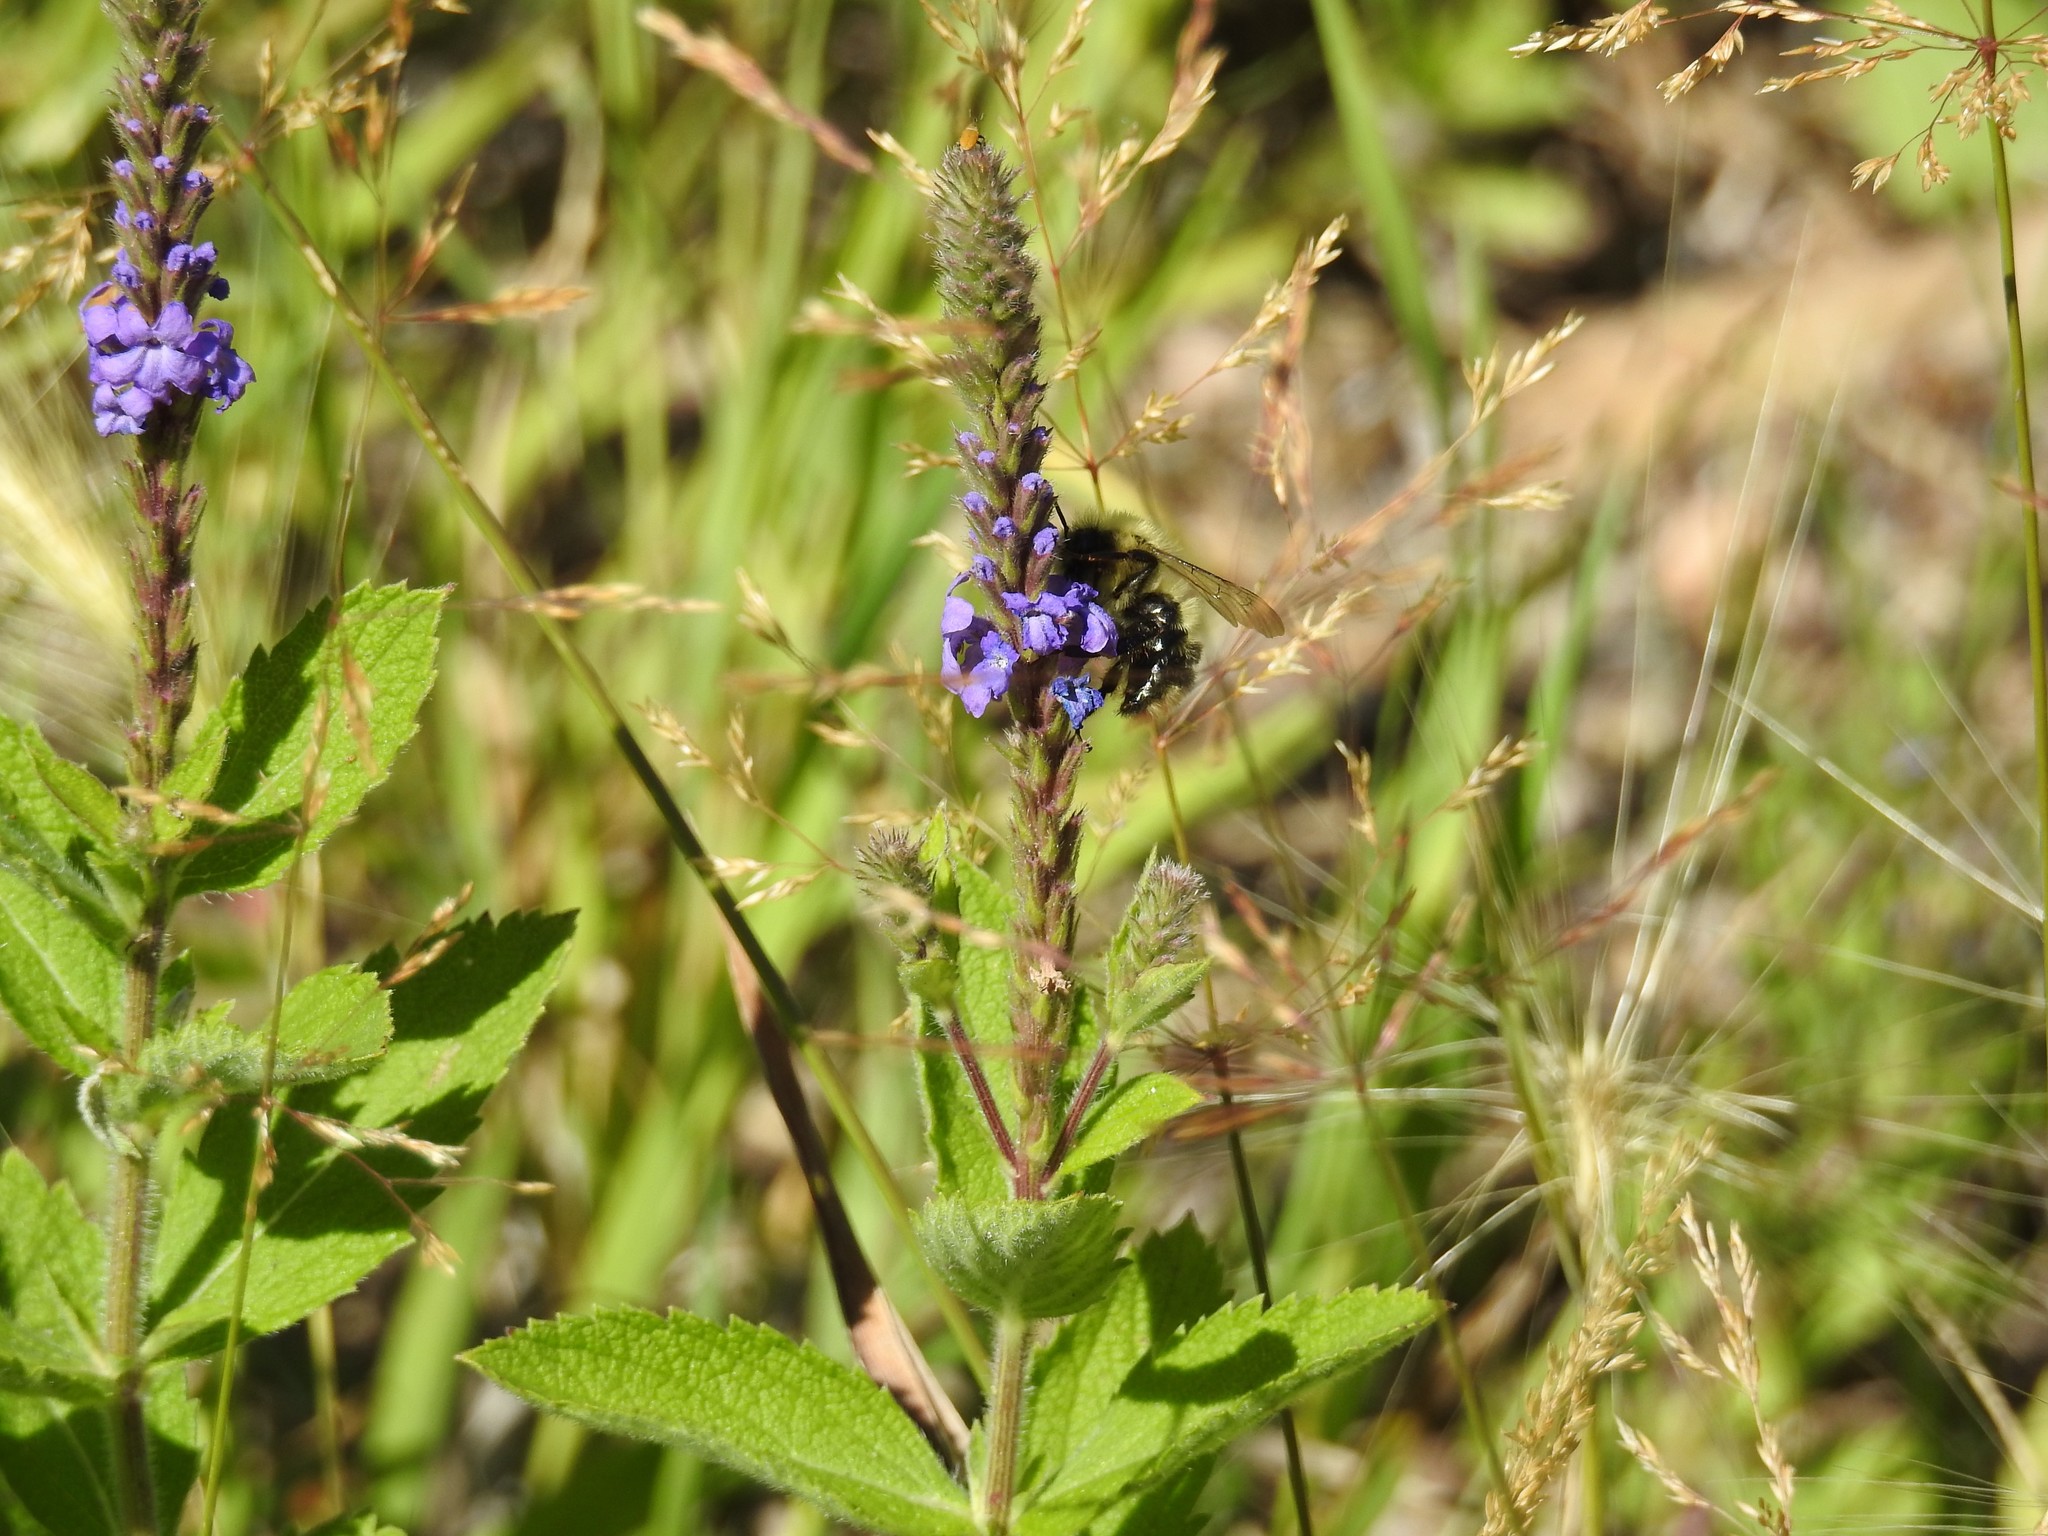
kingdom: Plantae
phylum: Tracheophyta
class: Magnoliopsida
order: Lamiales
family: Verbenaceae
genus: Verbena
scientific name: Verbena stricta
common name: Hoary vervain
